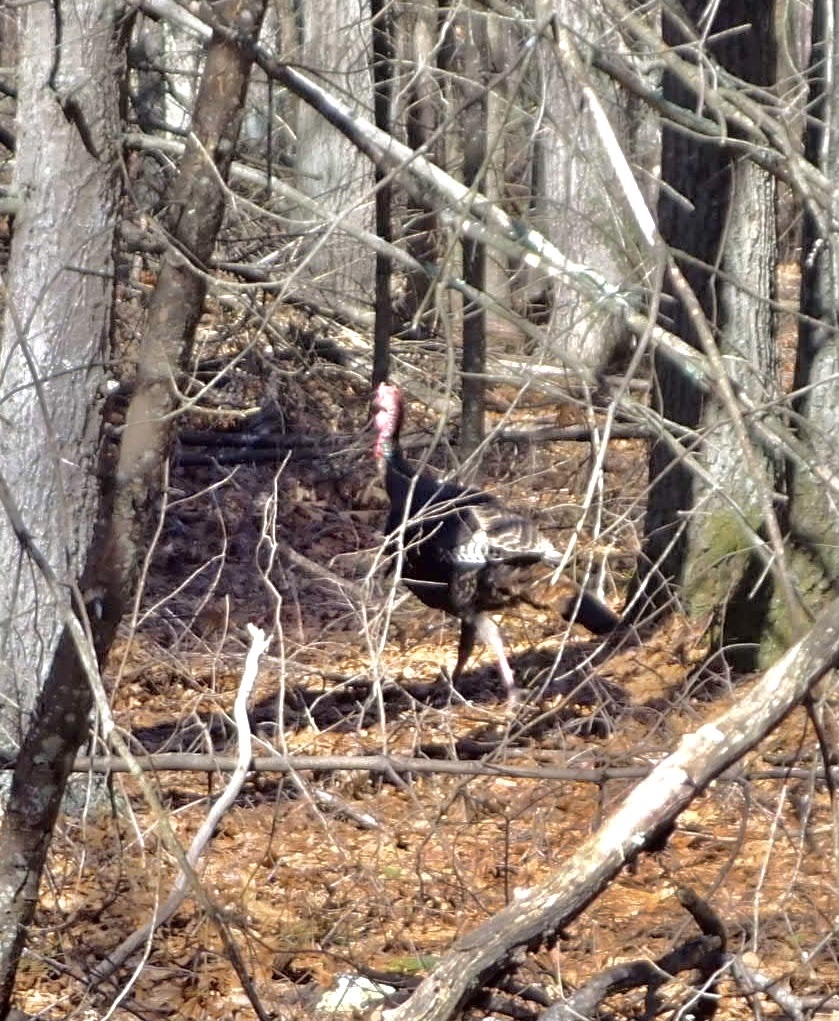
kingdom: Animalia
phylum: Chordata
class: Aves
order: Galliformes
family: Phasianidae
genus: Meleagris
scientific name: Meleagris gallopavo
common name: Wild turkey
